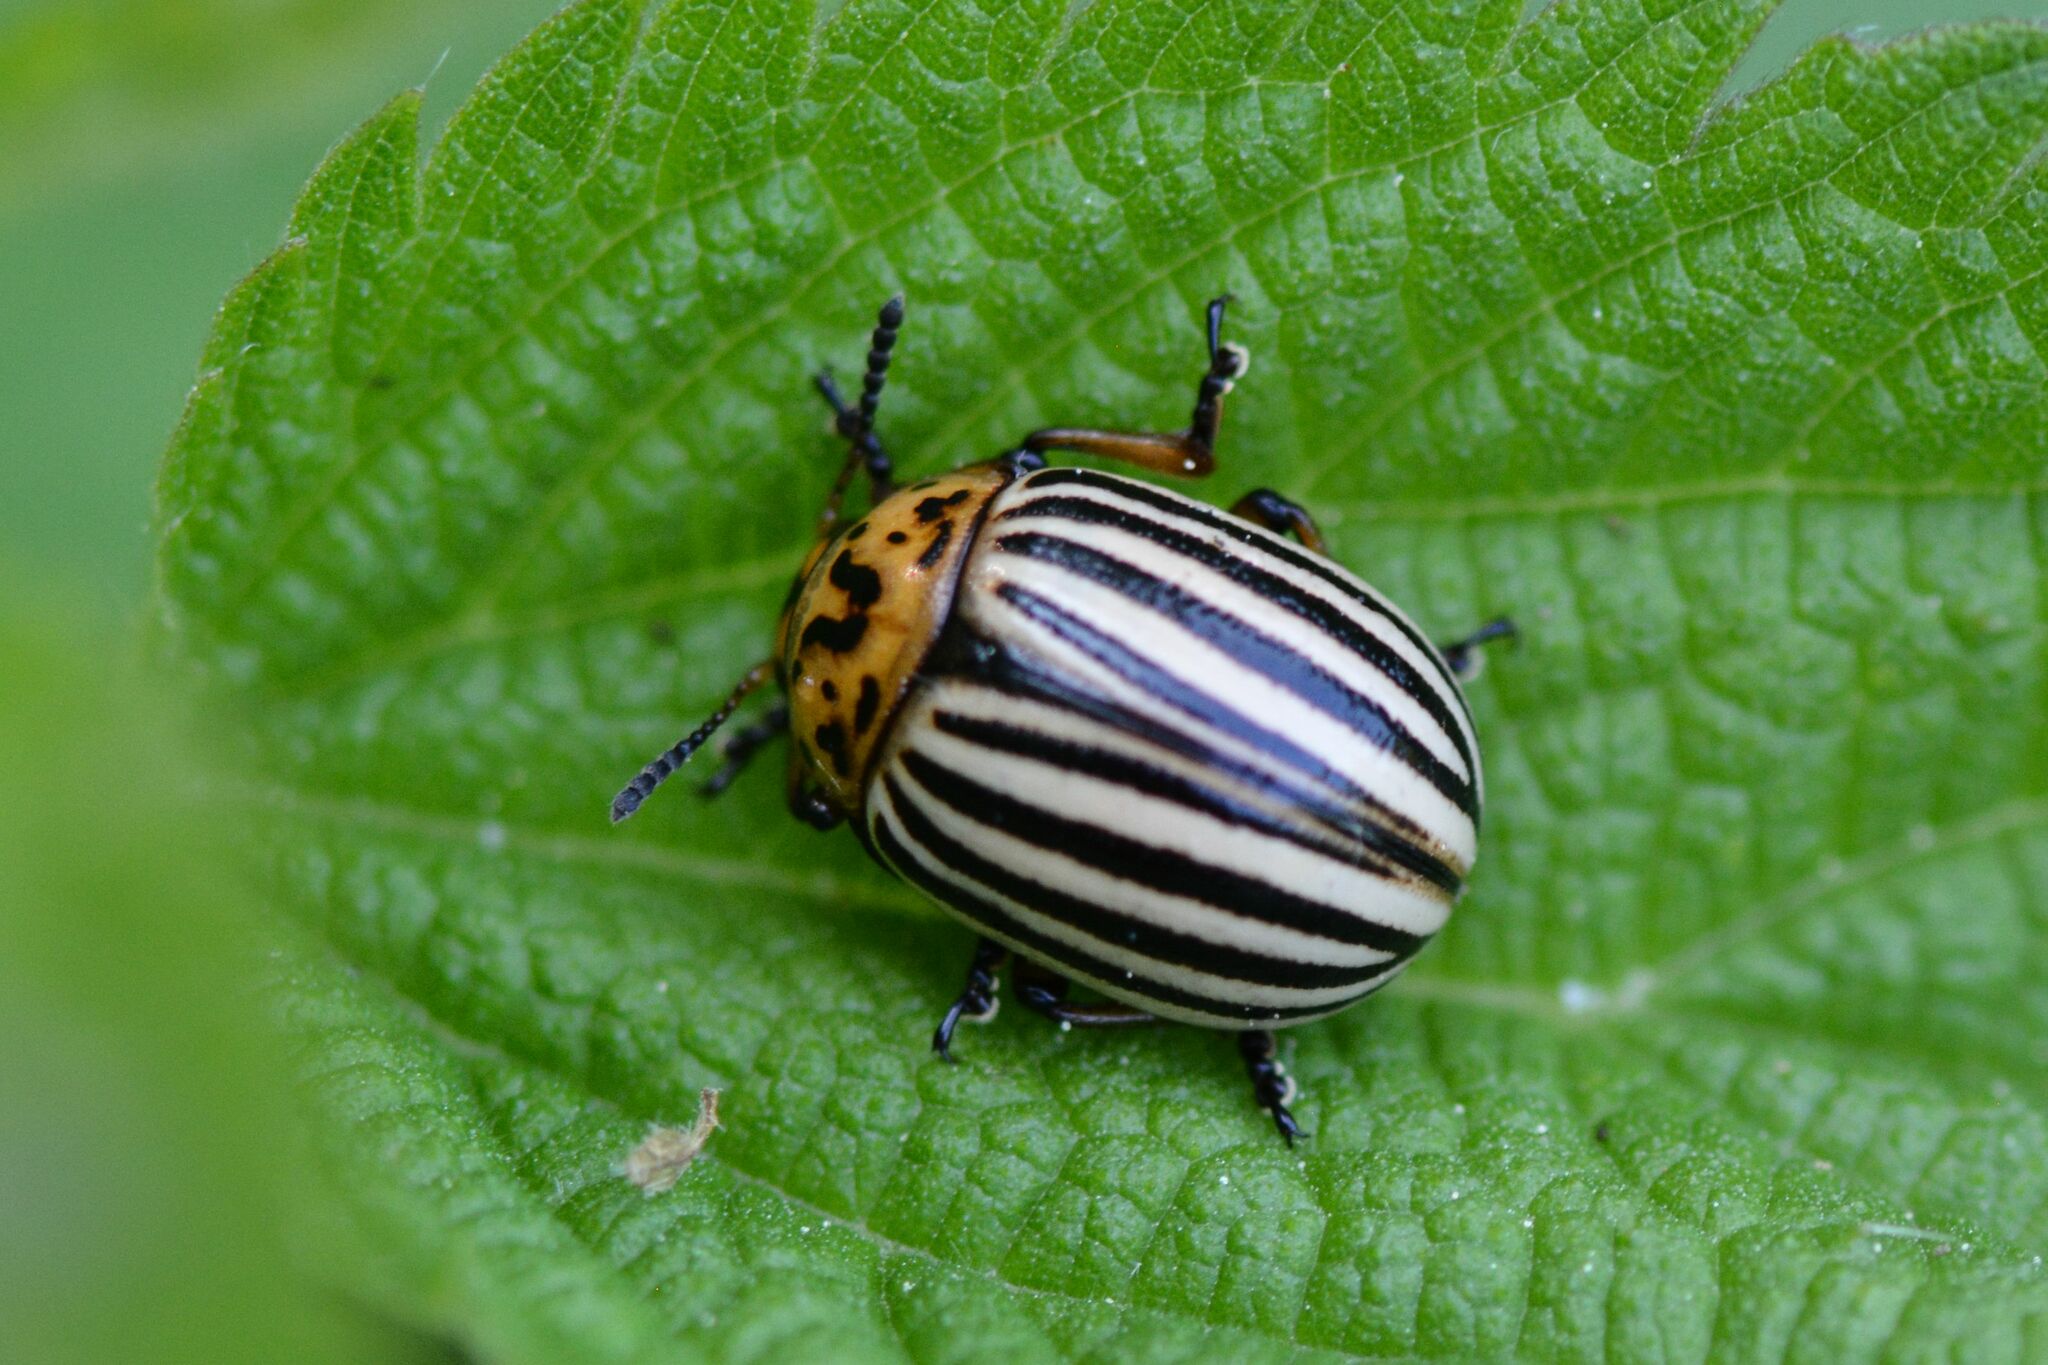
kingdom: Animalia
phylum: Arthropoda
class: Insecta
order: Coleoptera
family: Chrysomelidae
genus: Leptinotarsa
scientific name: Leptinotarsa decemlineata
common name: Colorado potato beetle
